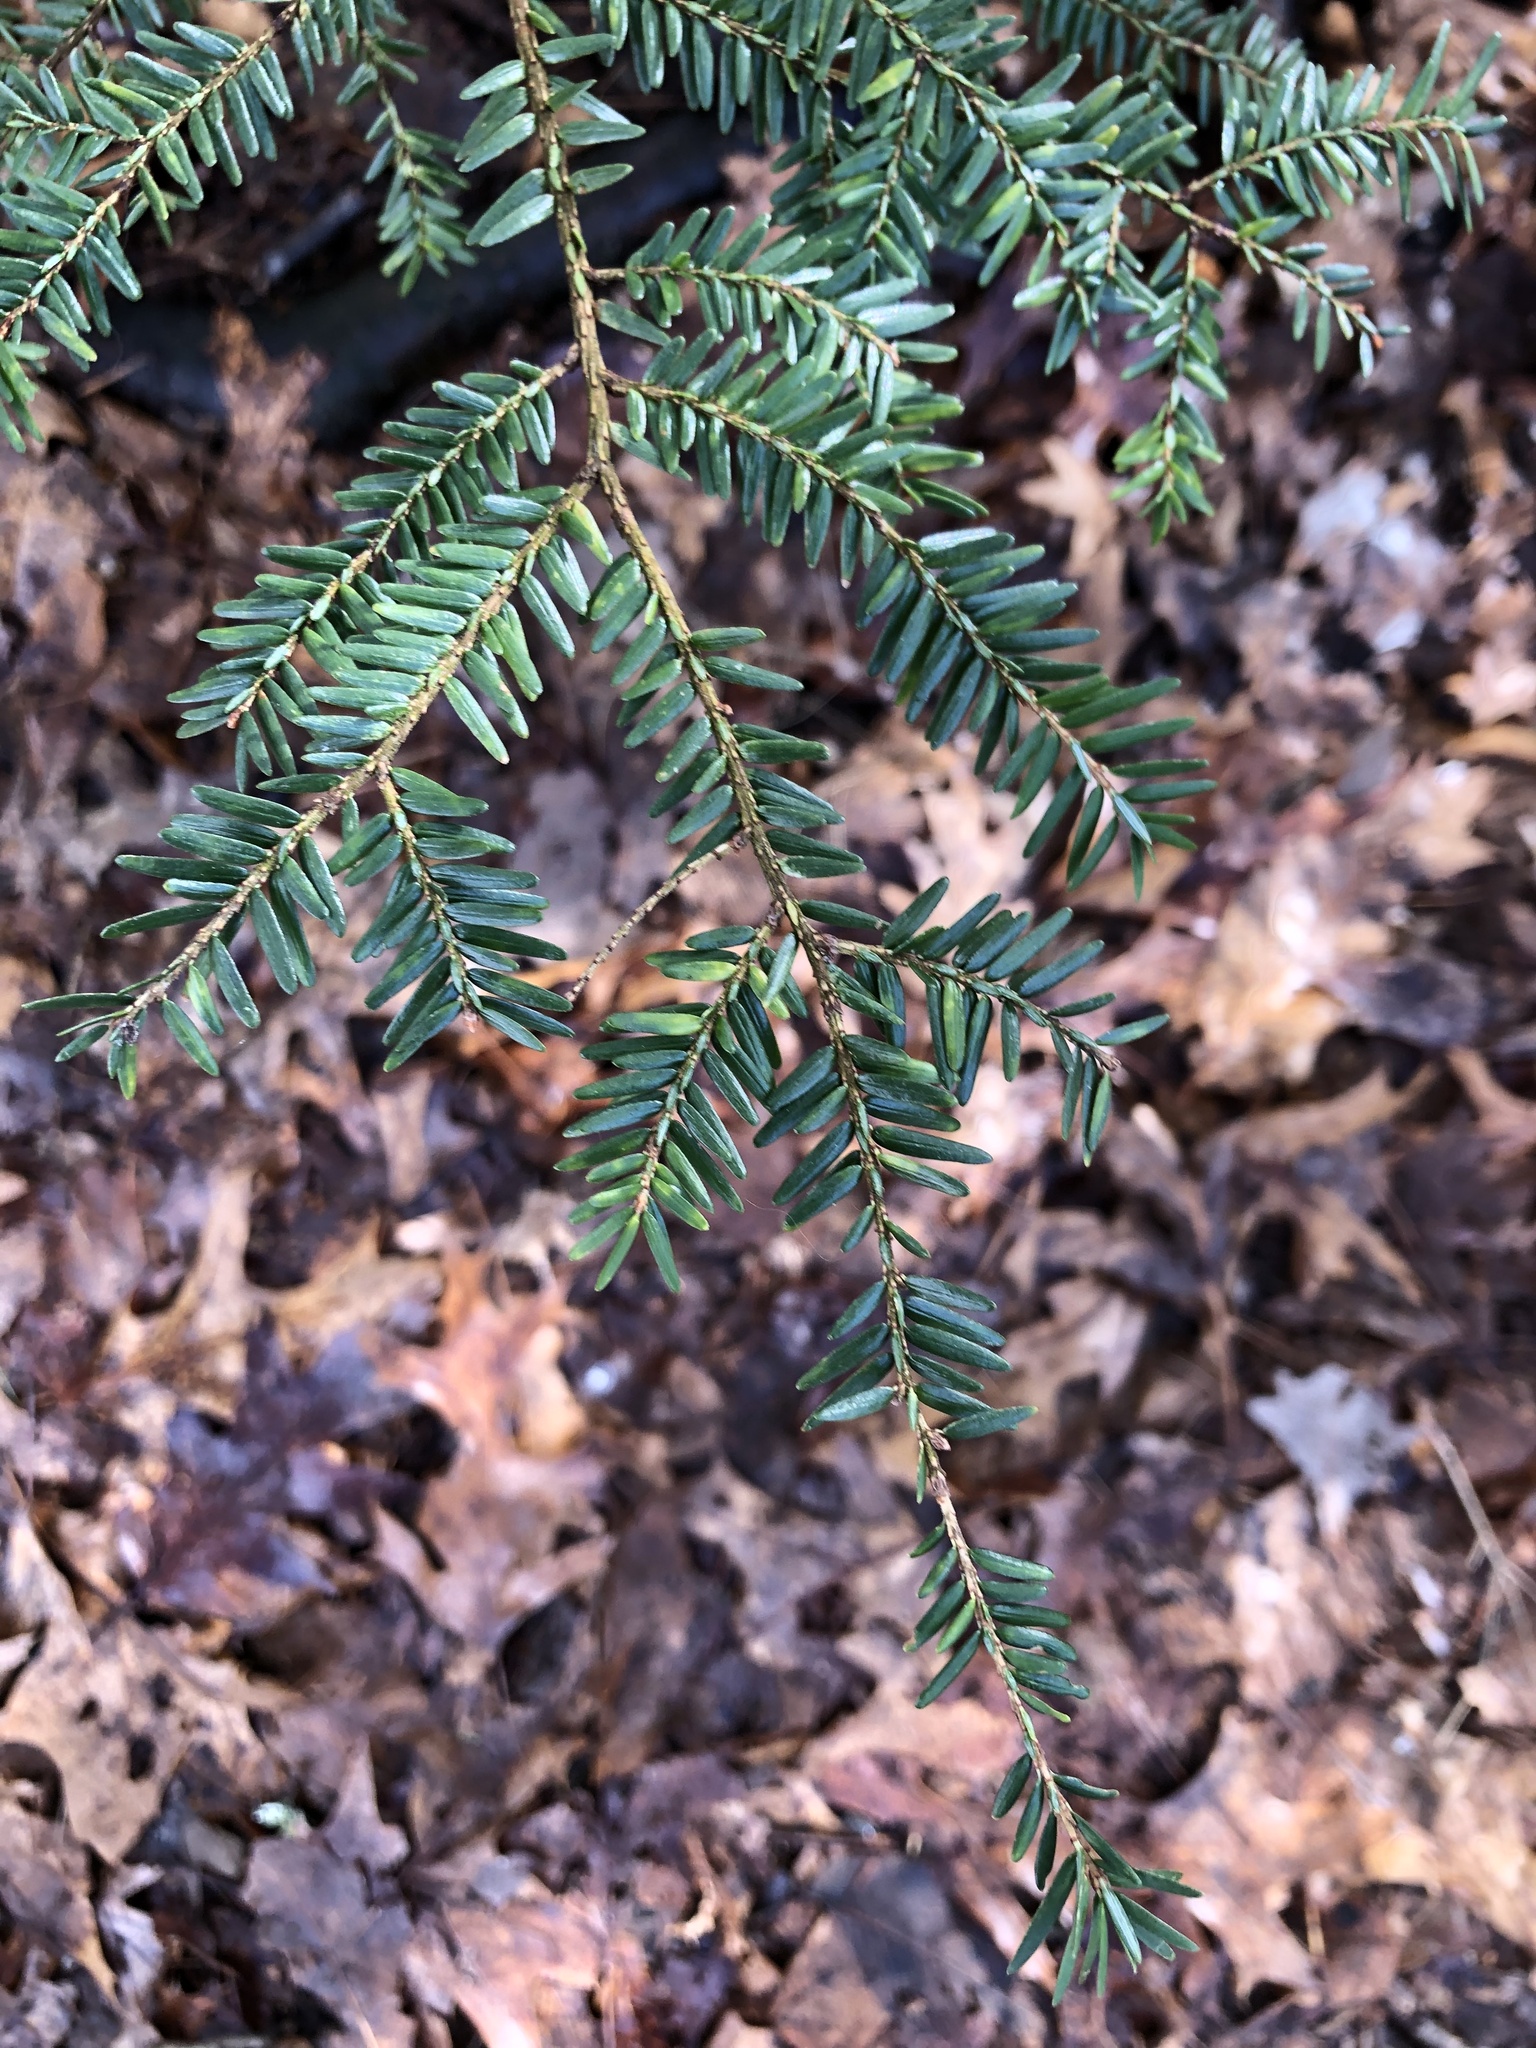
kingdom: Plantae
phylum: Tracheophyta
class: Pinopsida
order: Pinales
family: Pinaceae
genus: Tsuga
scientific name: Tsuga canadensis
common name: Eastern hemlock
